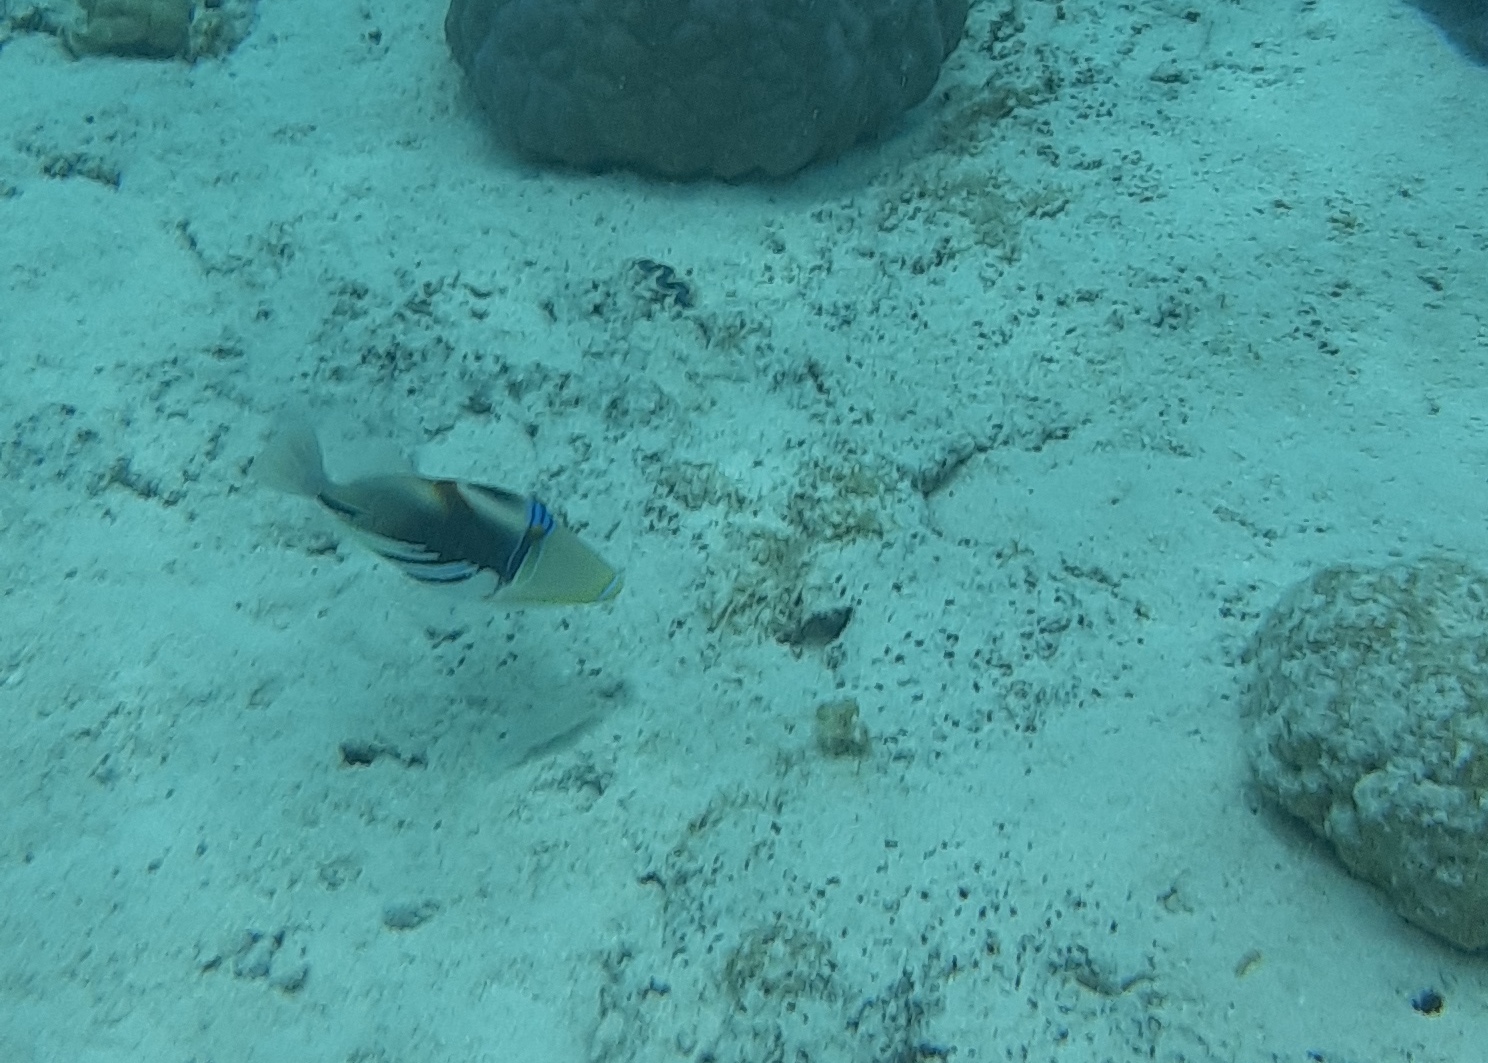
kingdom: Animalia
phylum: Chordata
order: Tetraodontiformes
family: Balistidae
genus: Rhinecanthus
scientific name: Rhinecanthus aculeatus
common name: White-banded triggerfish
